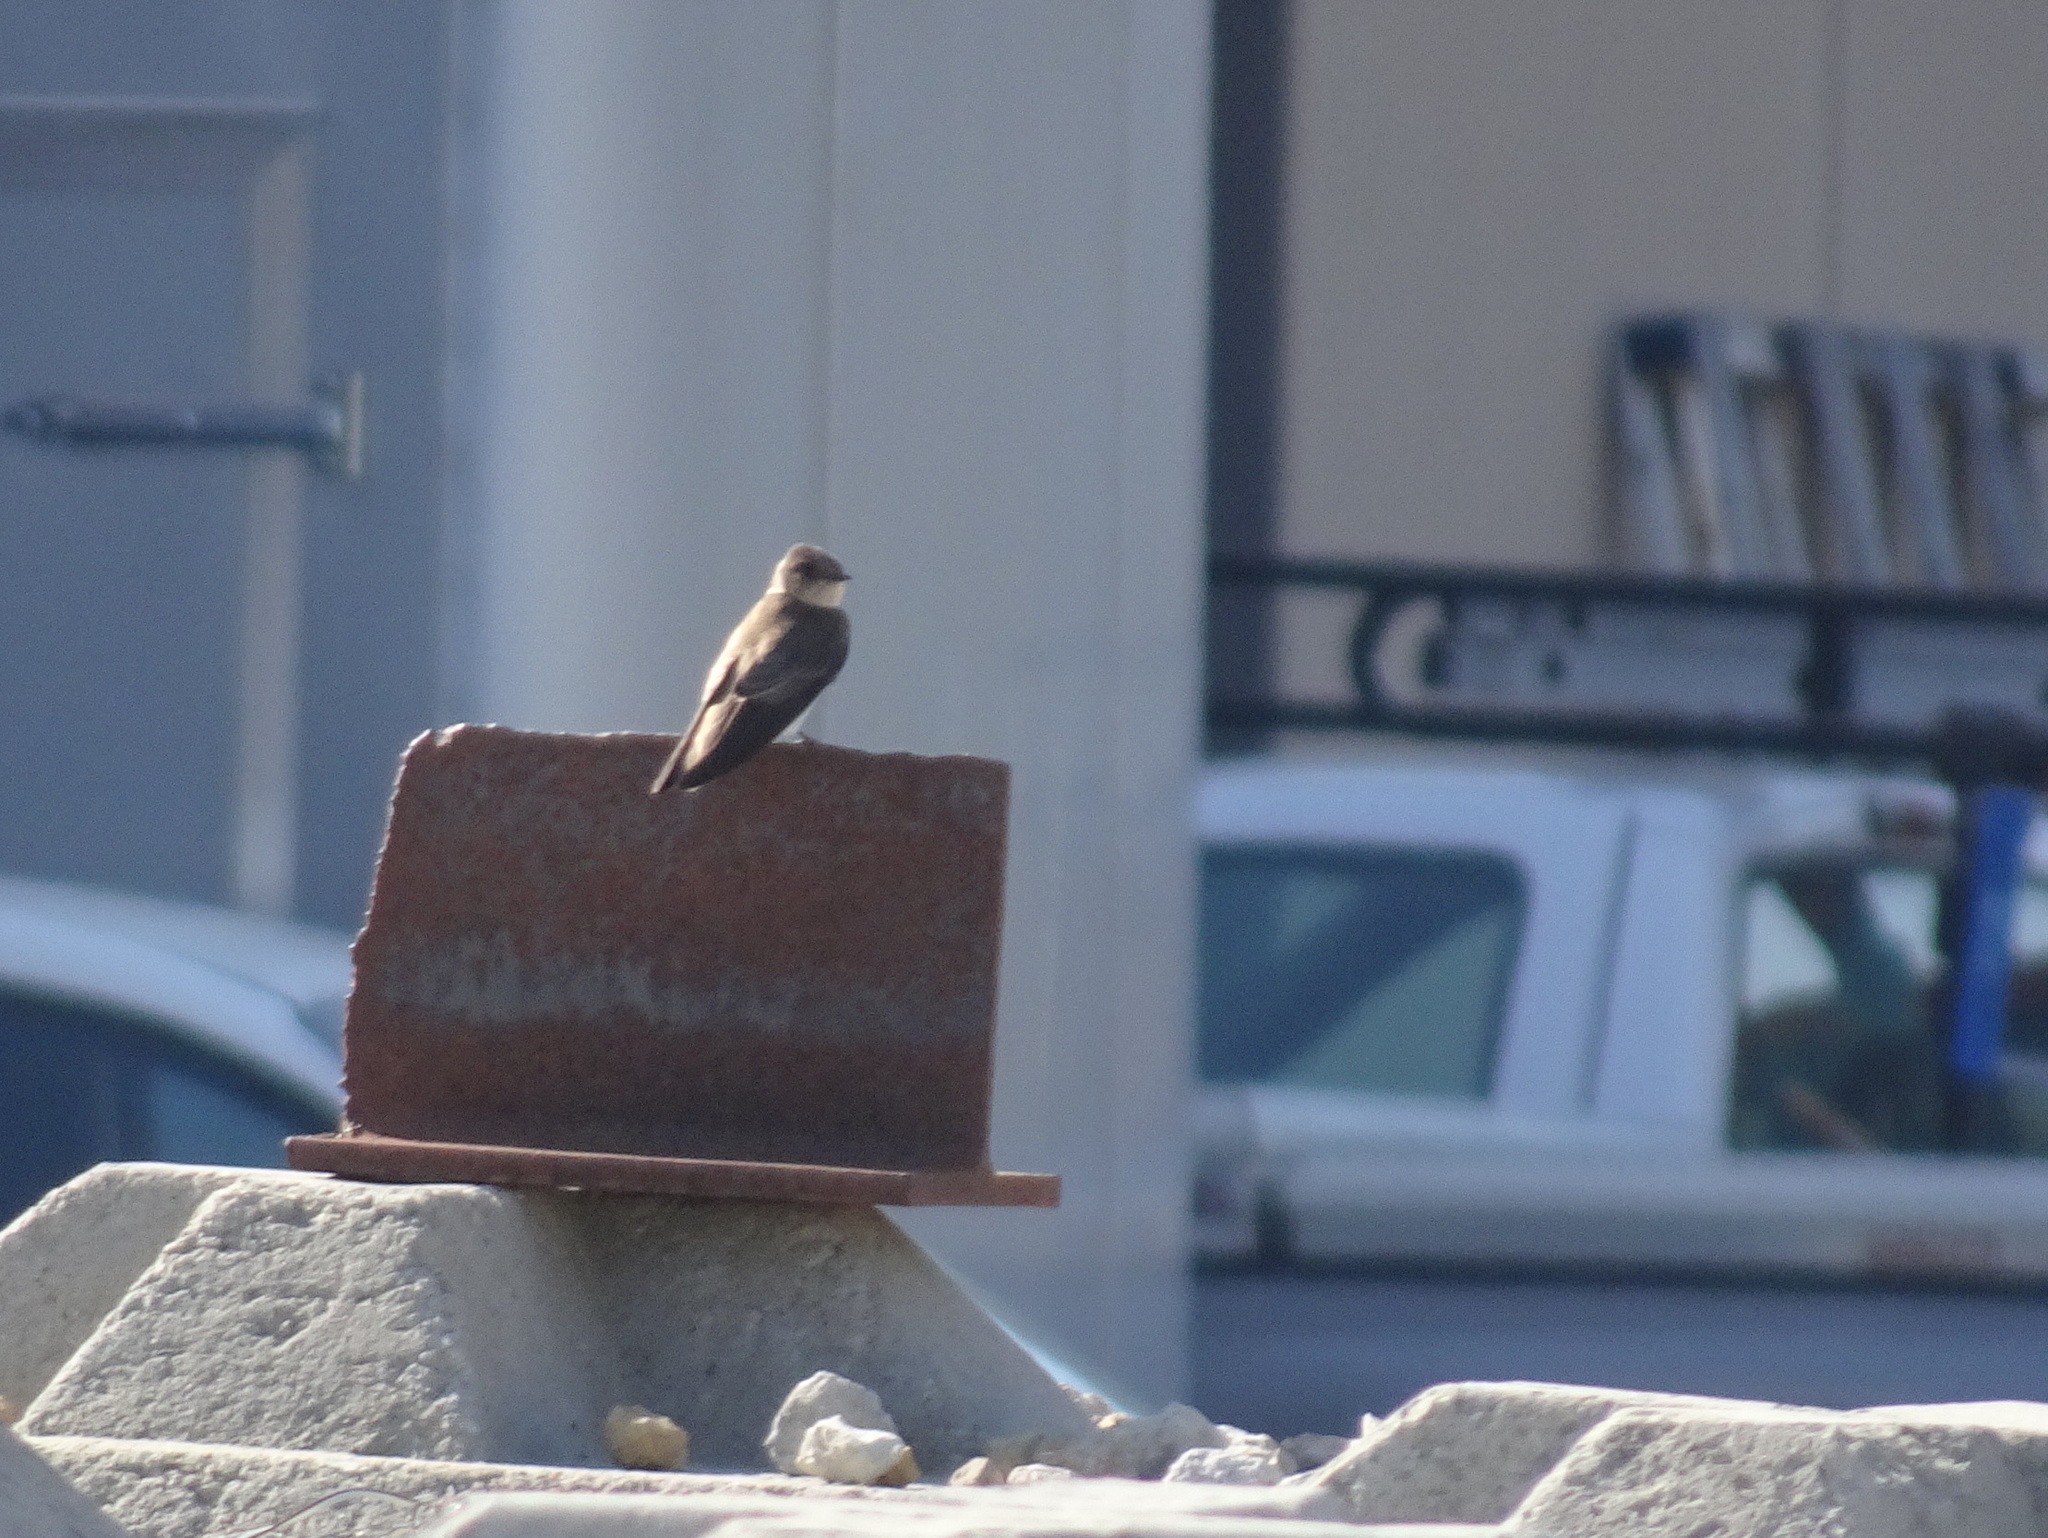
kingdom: Animalia
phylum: Chordata
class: Aves
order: Passeriformes
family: Hirundinidae
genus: Stelgidopteryx
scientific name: Stelgidopteryx serripennis
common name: Northern rough-winged swallow
